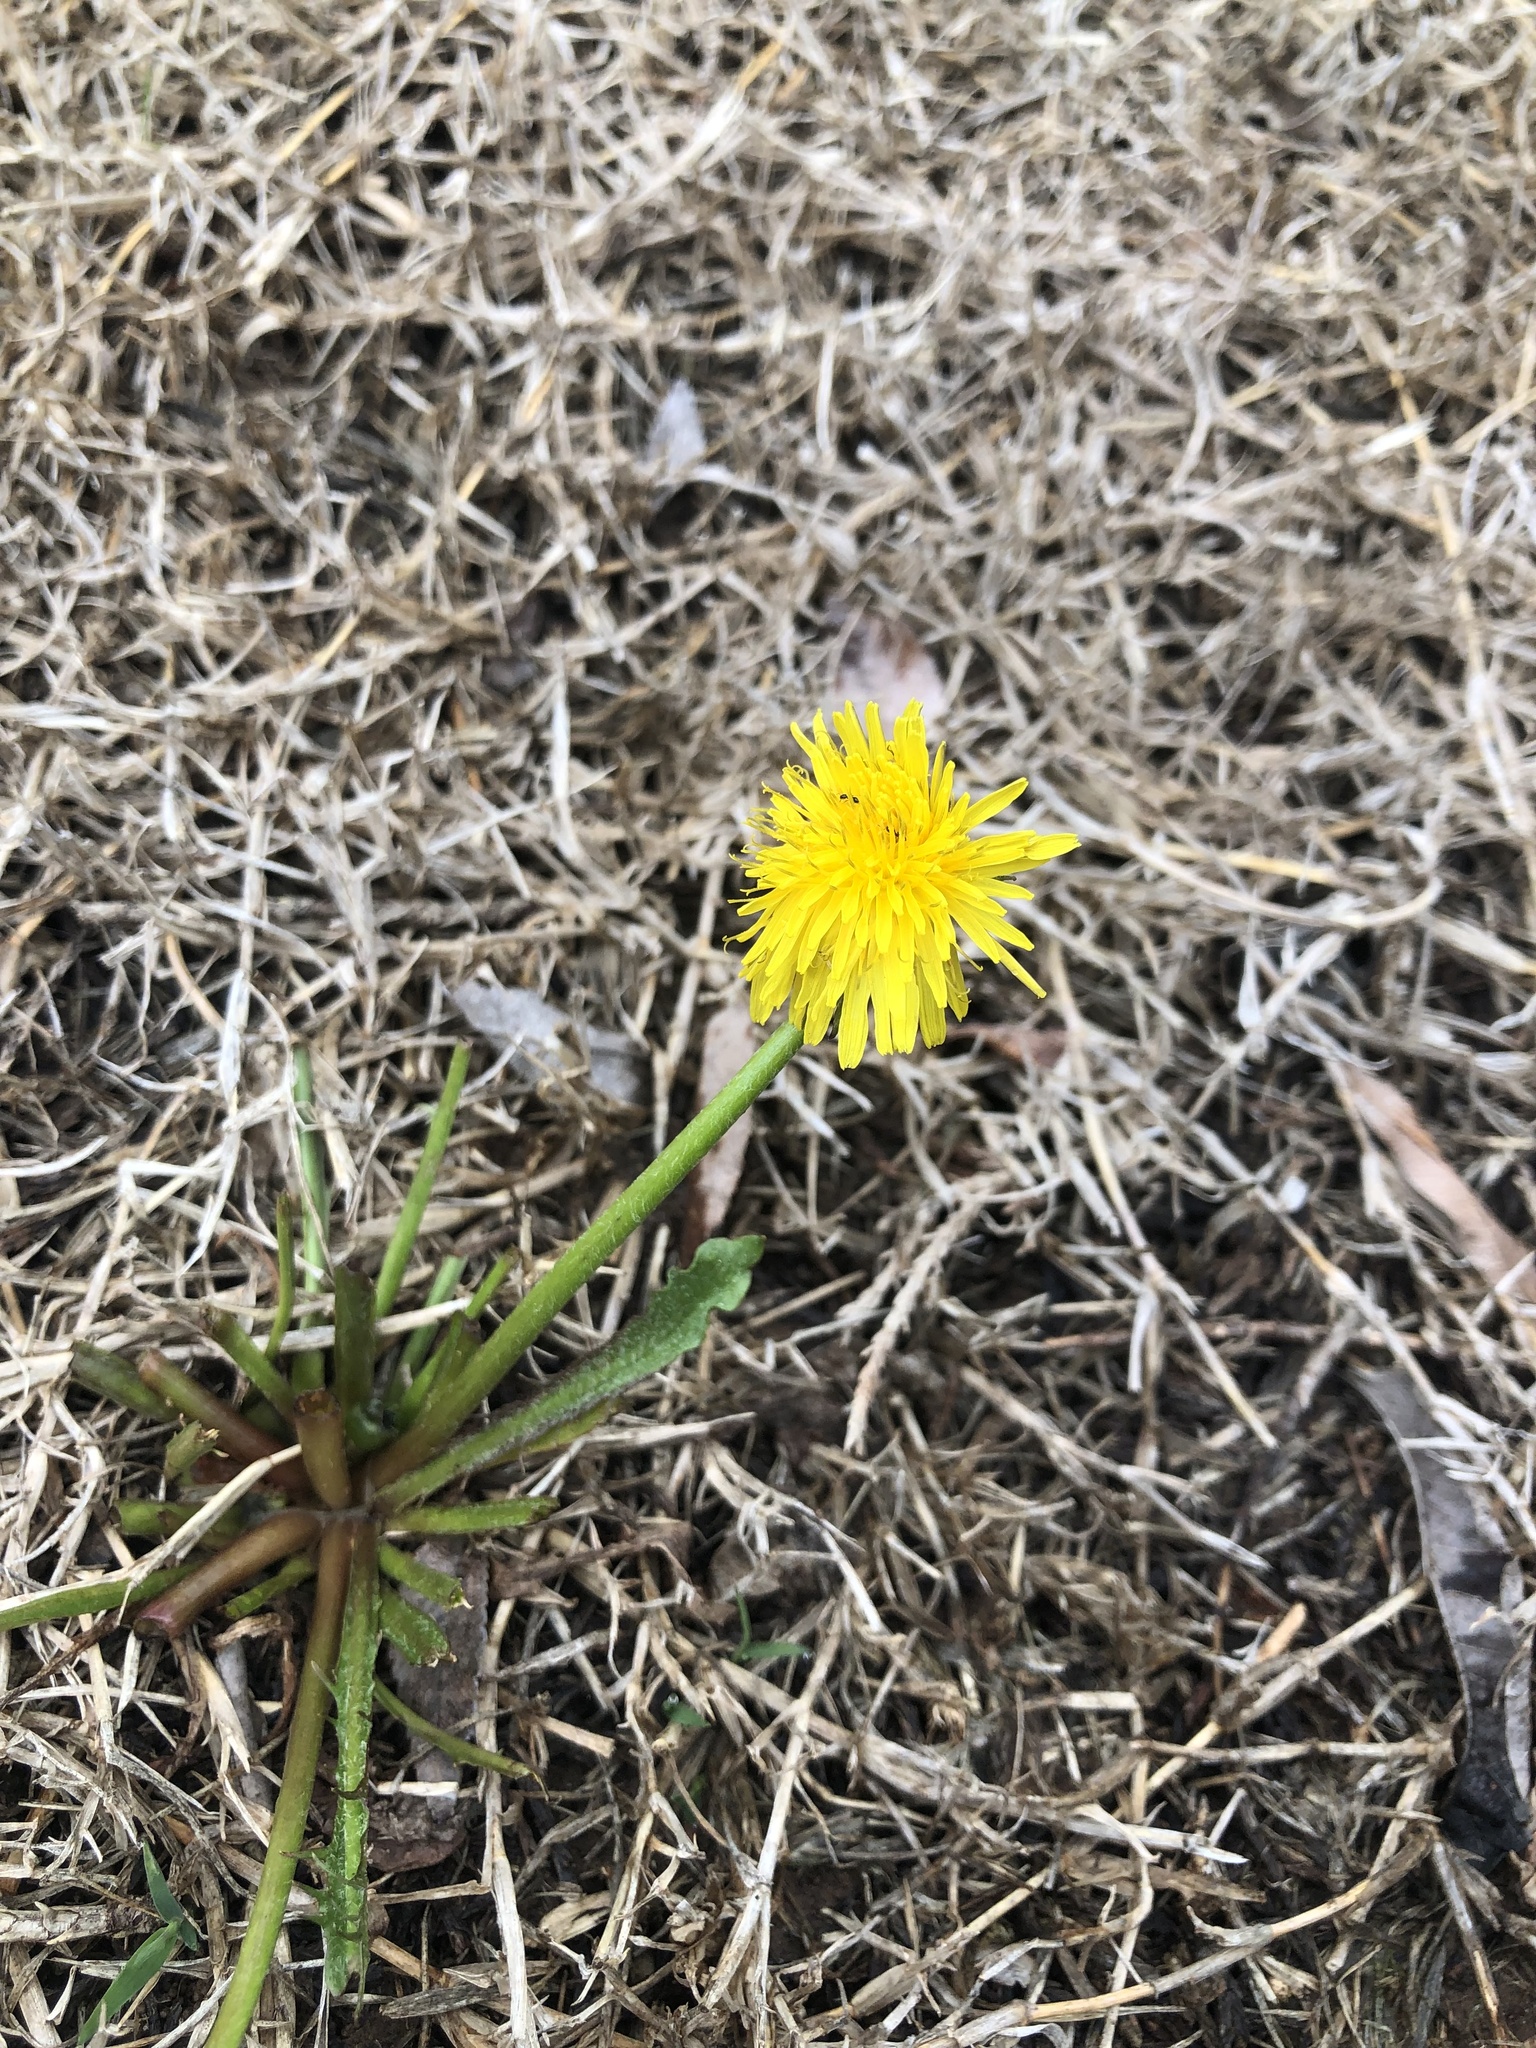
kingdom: Plantae
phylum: Tracheophyta
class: Magnoliopsida
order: Asterales
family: Asteraceae
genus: Taraxacum
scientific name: Taraxacum
